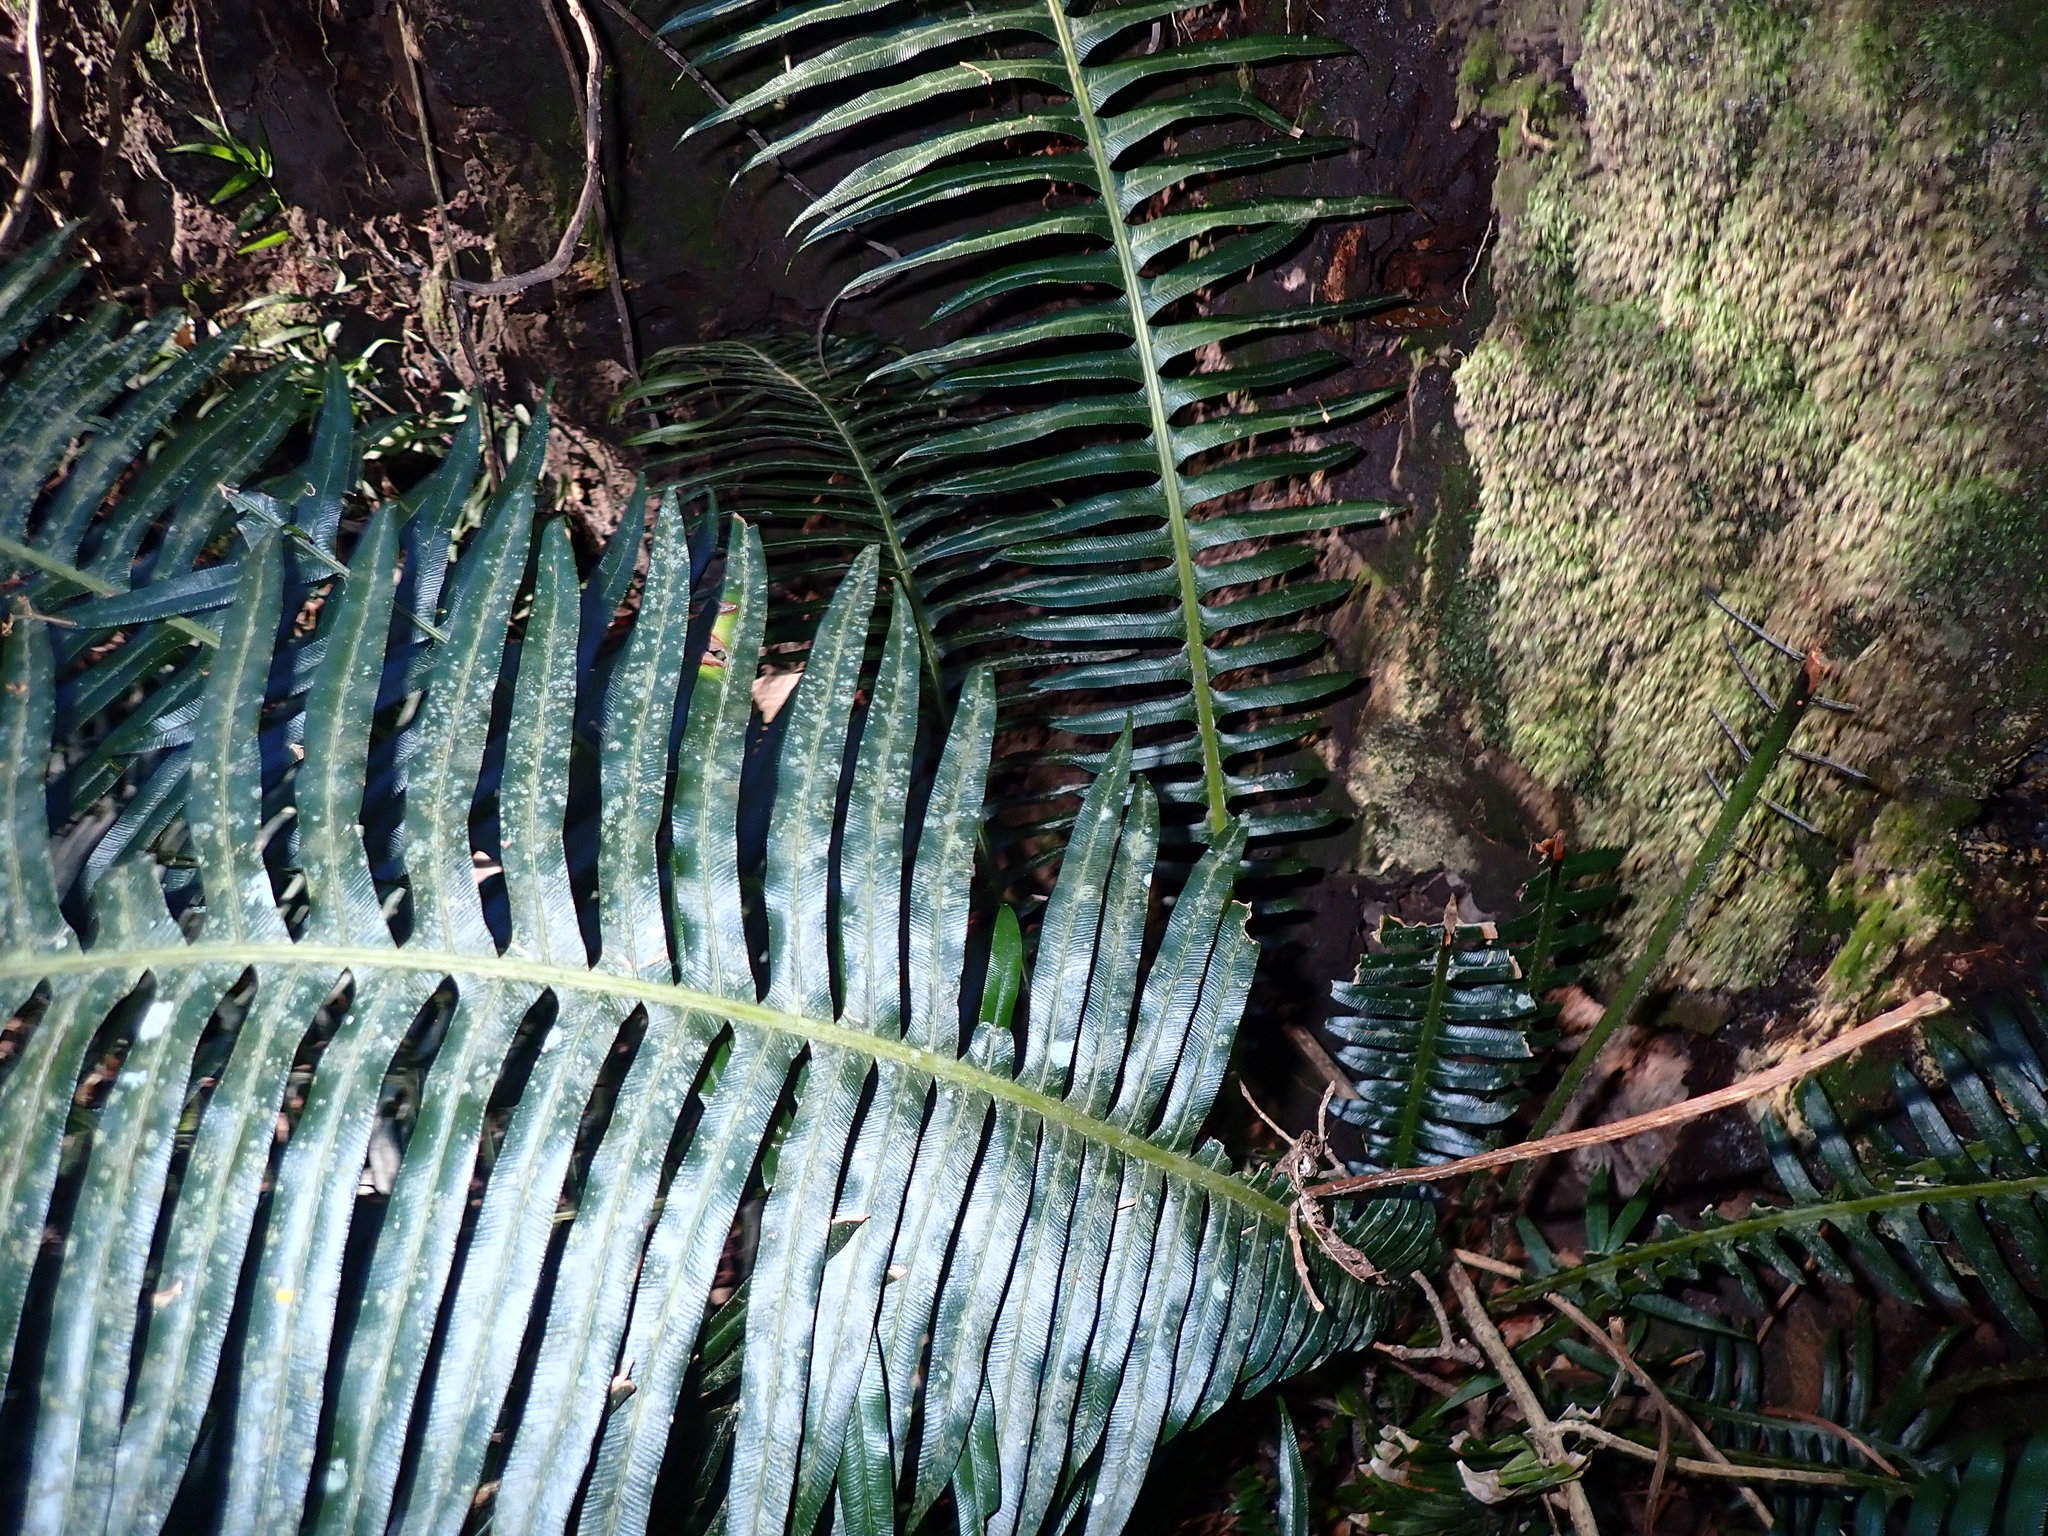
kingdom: Plantae
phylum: Tracheophyta
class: Polypodiopsida
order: Polypodiales
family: Blechnaceae
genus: Lomaridium
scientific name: Lomaridium attenuatum
